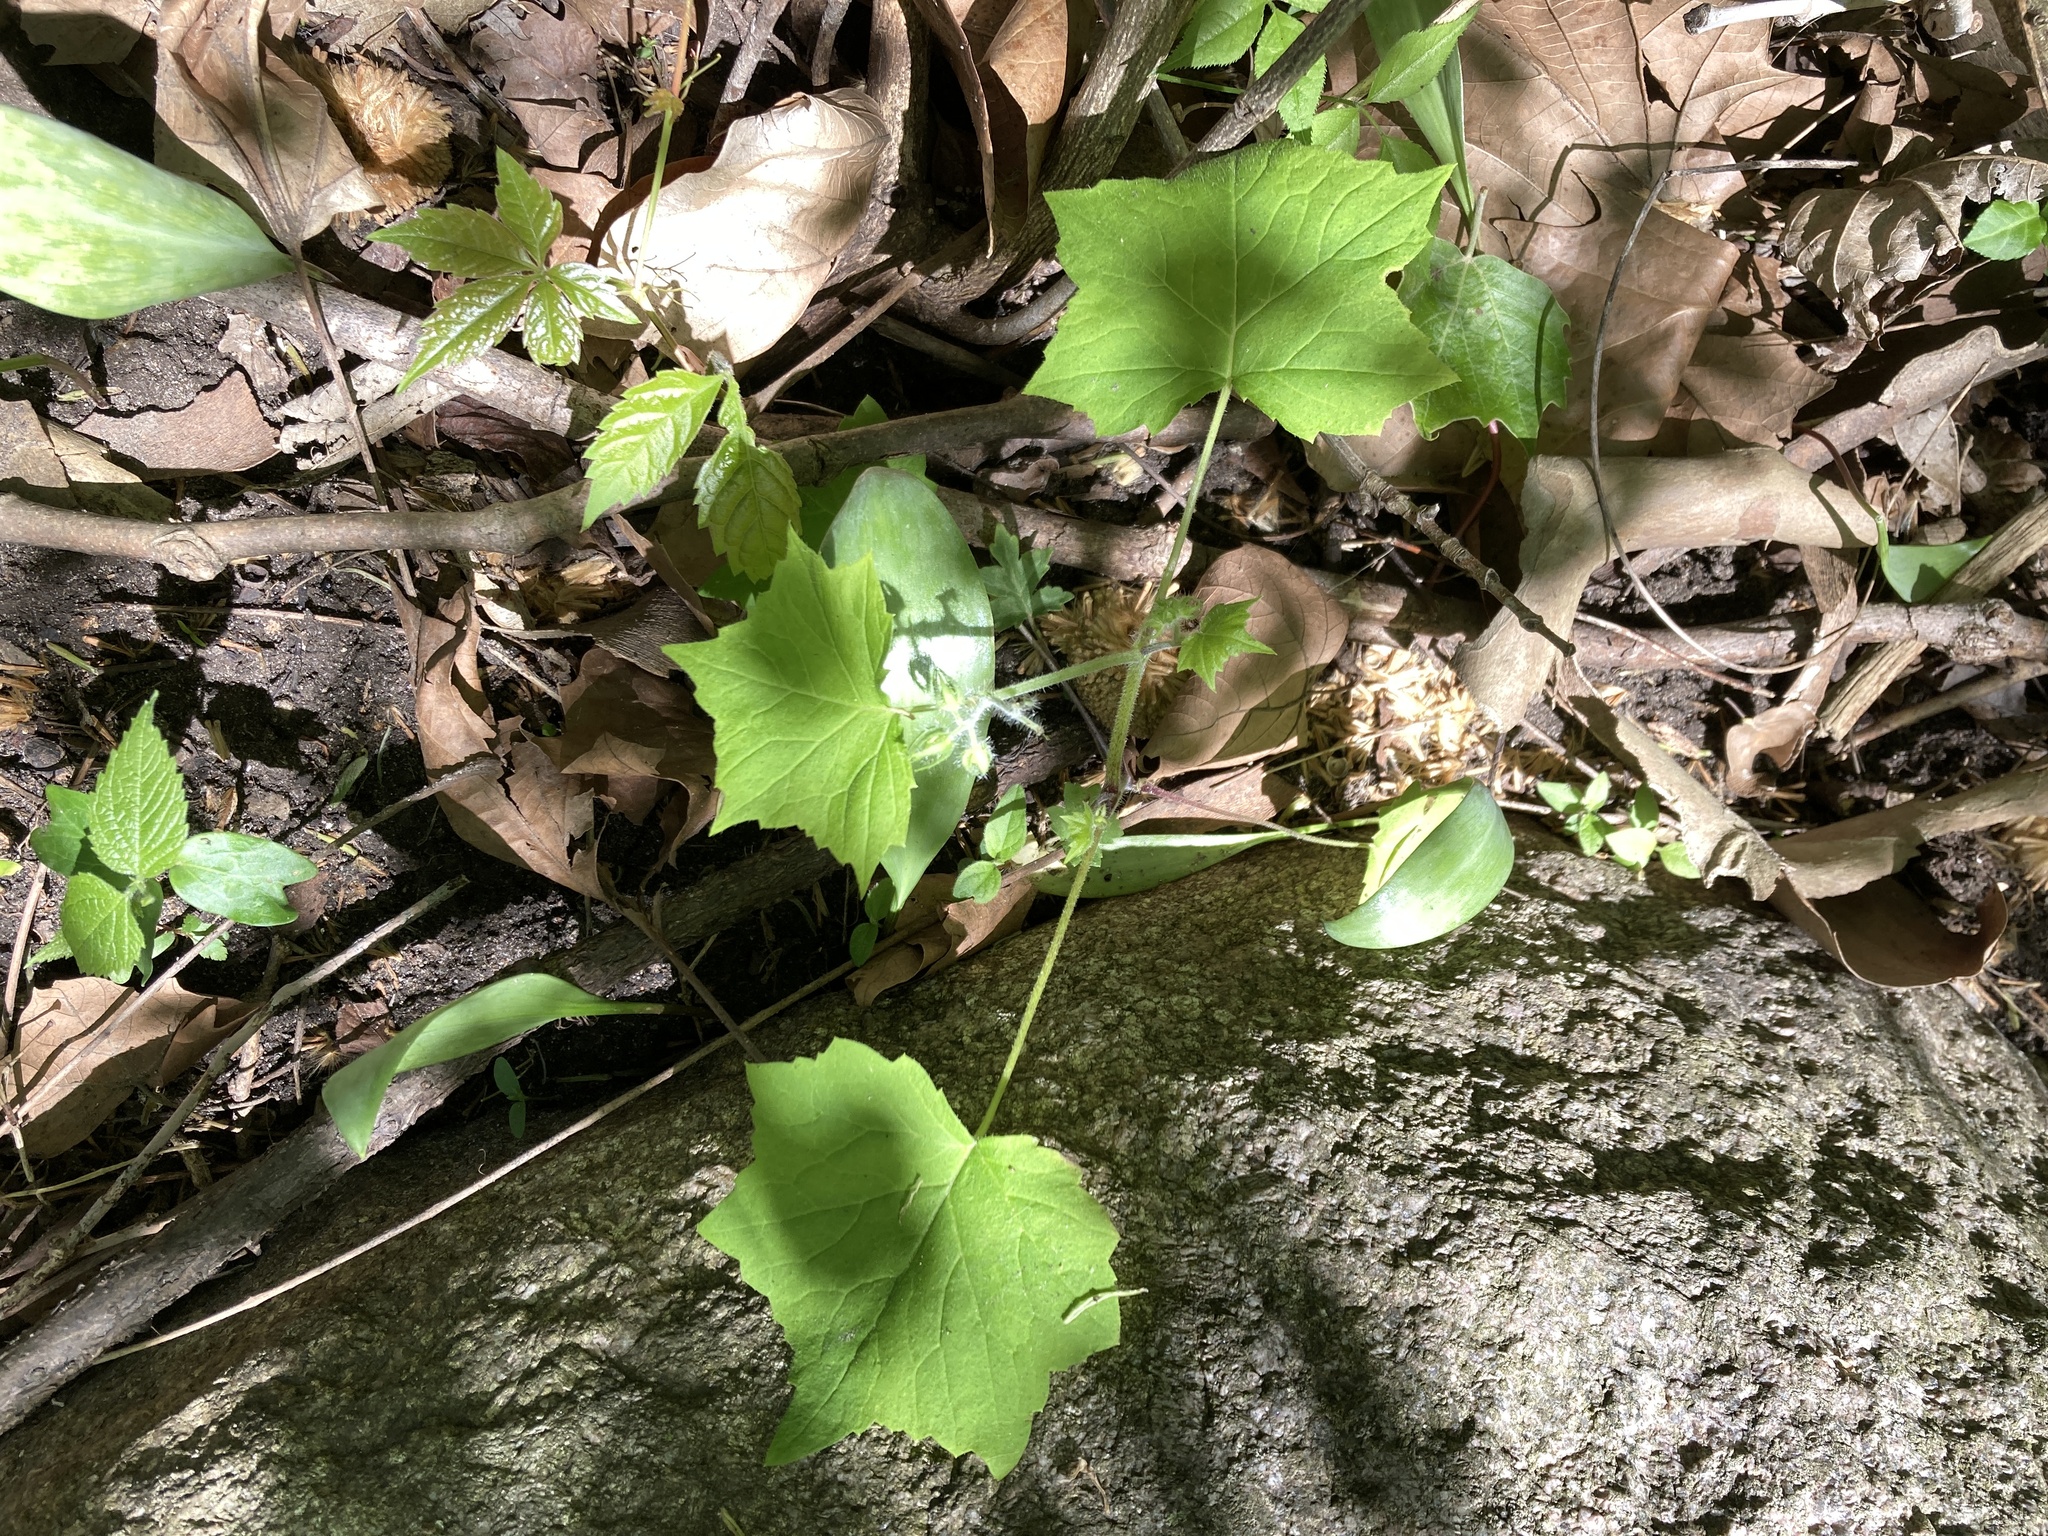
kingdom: Plantae
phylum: Tracheophyta
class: Magnoliopsida
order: Cucurbitales
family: Cucurbitaceae
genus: Sicyos
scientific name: Sicyos angulatus
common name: Angled burr cucumber
